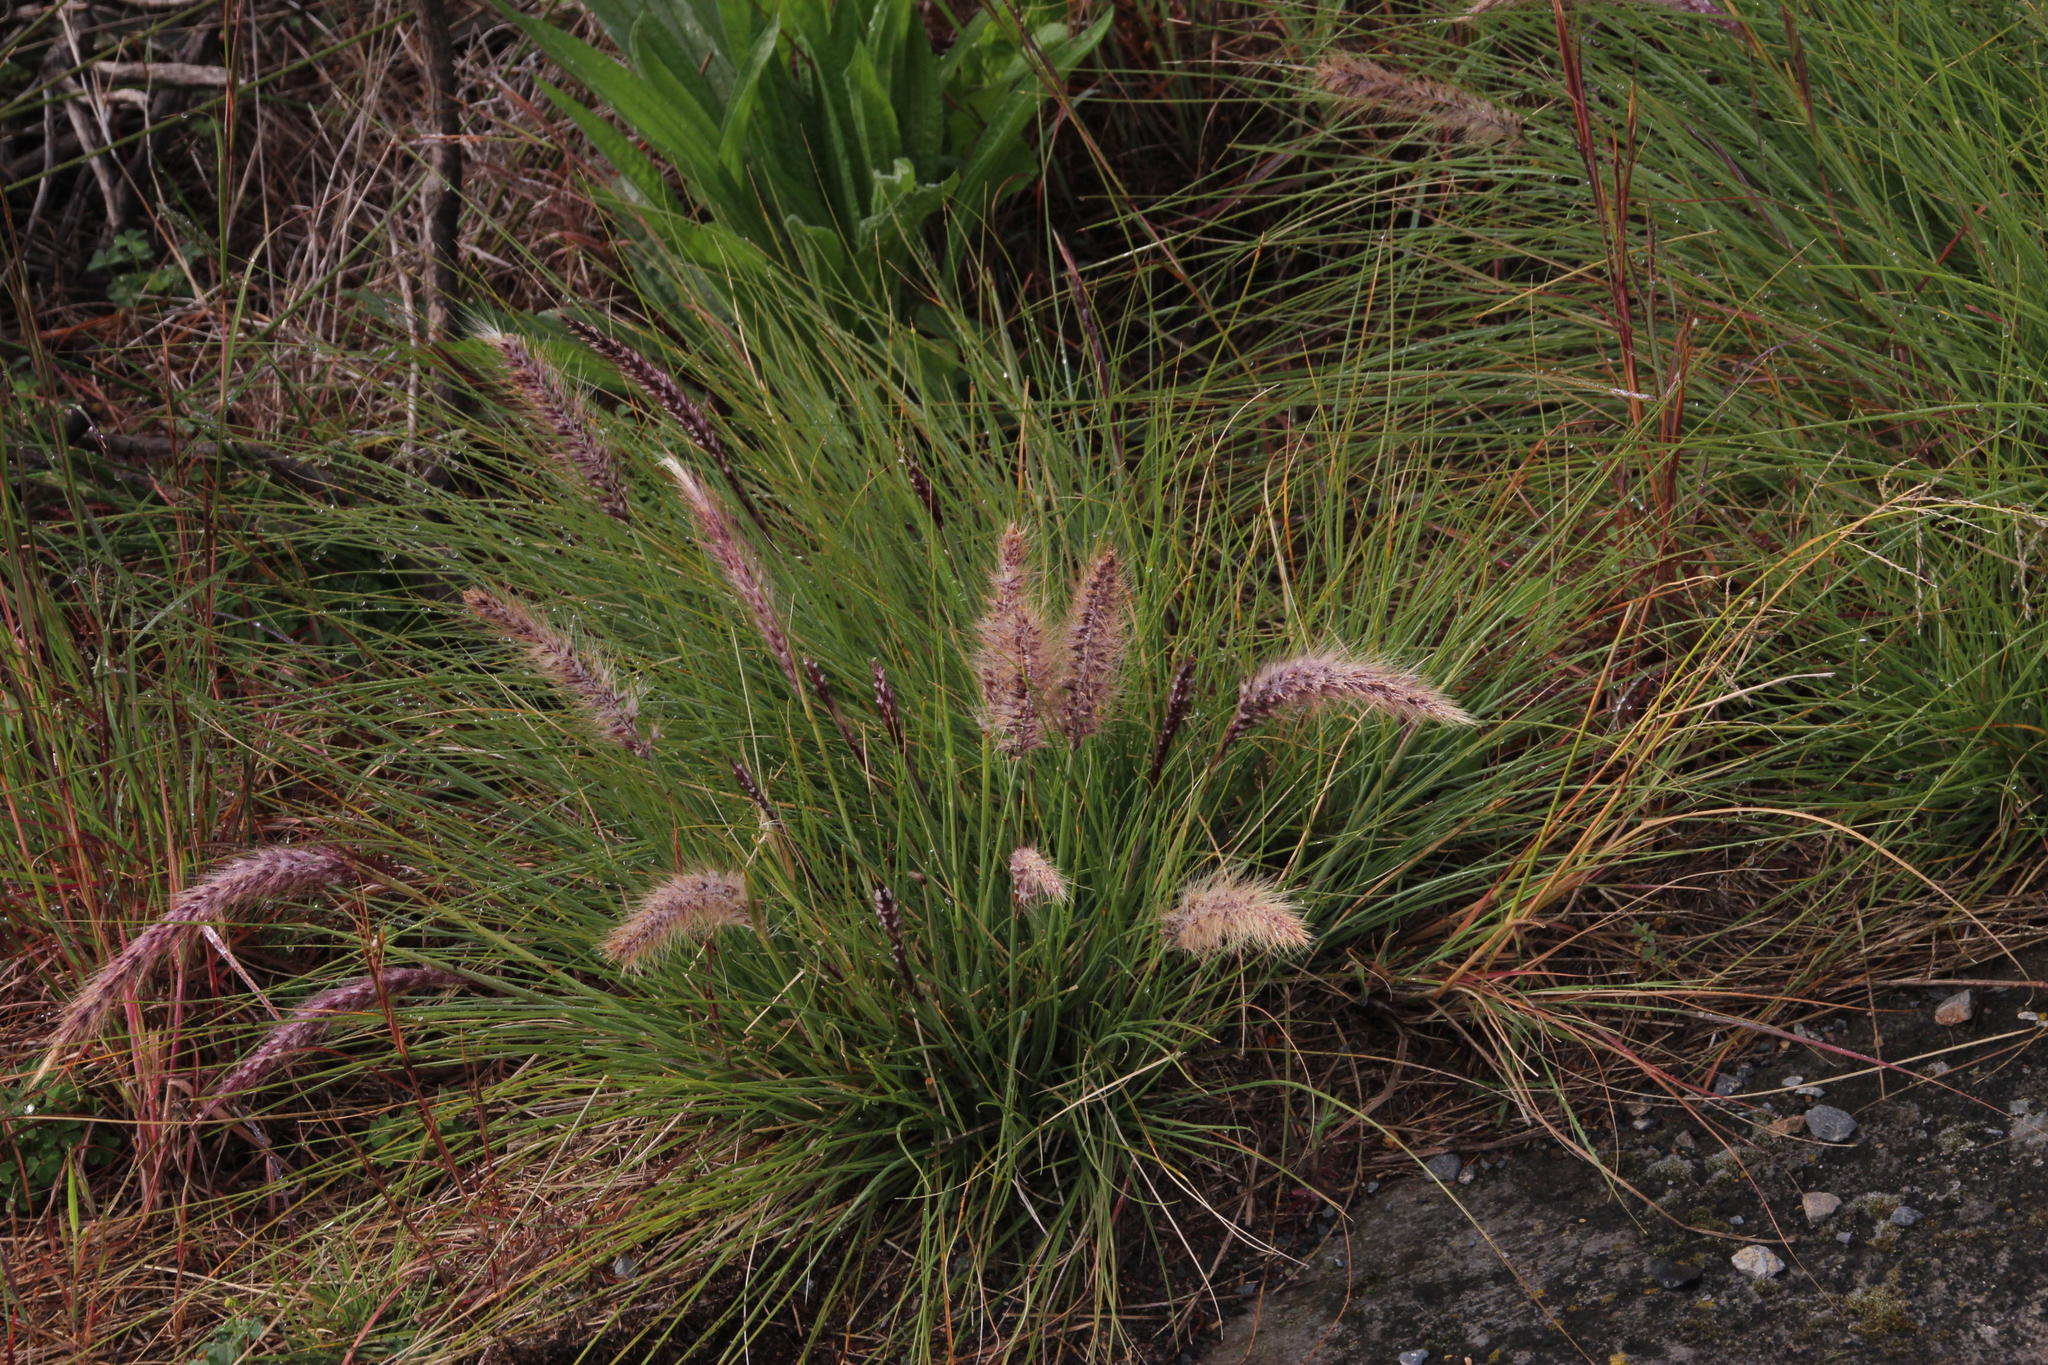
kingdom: Plantae
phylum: Tracheophyta
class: Liliopsida
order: Poales
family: Poaceae
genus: Cenchrus
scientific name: Cenchrus setaceus
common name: Crimson fountaingrass
